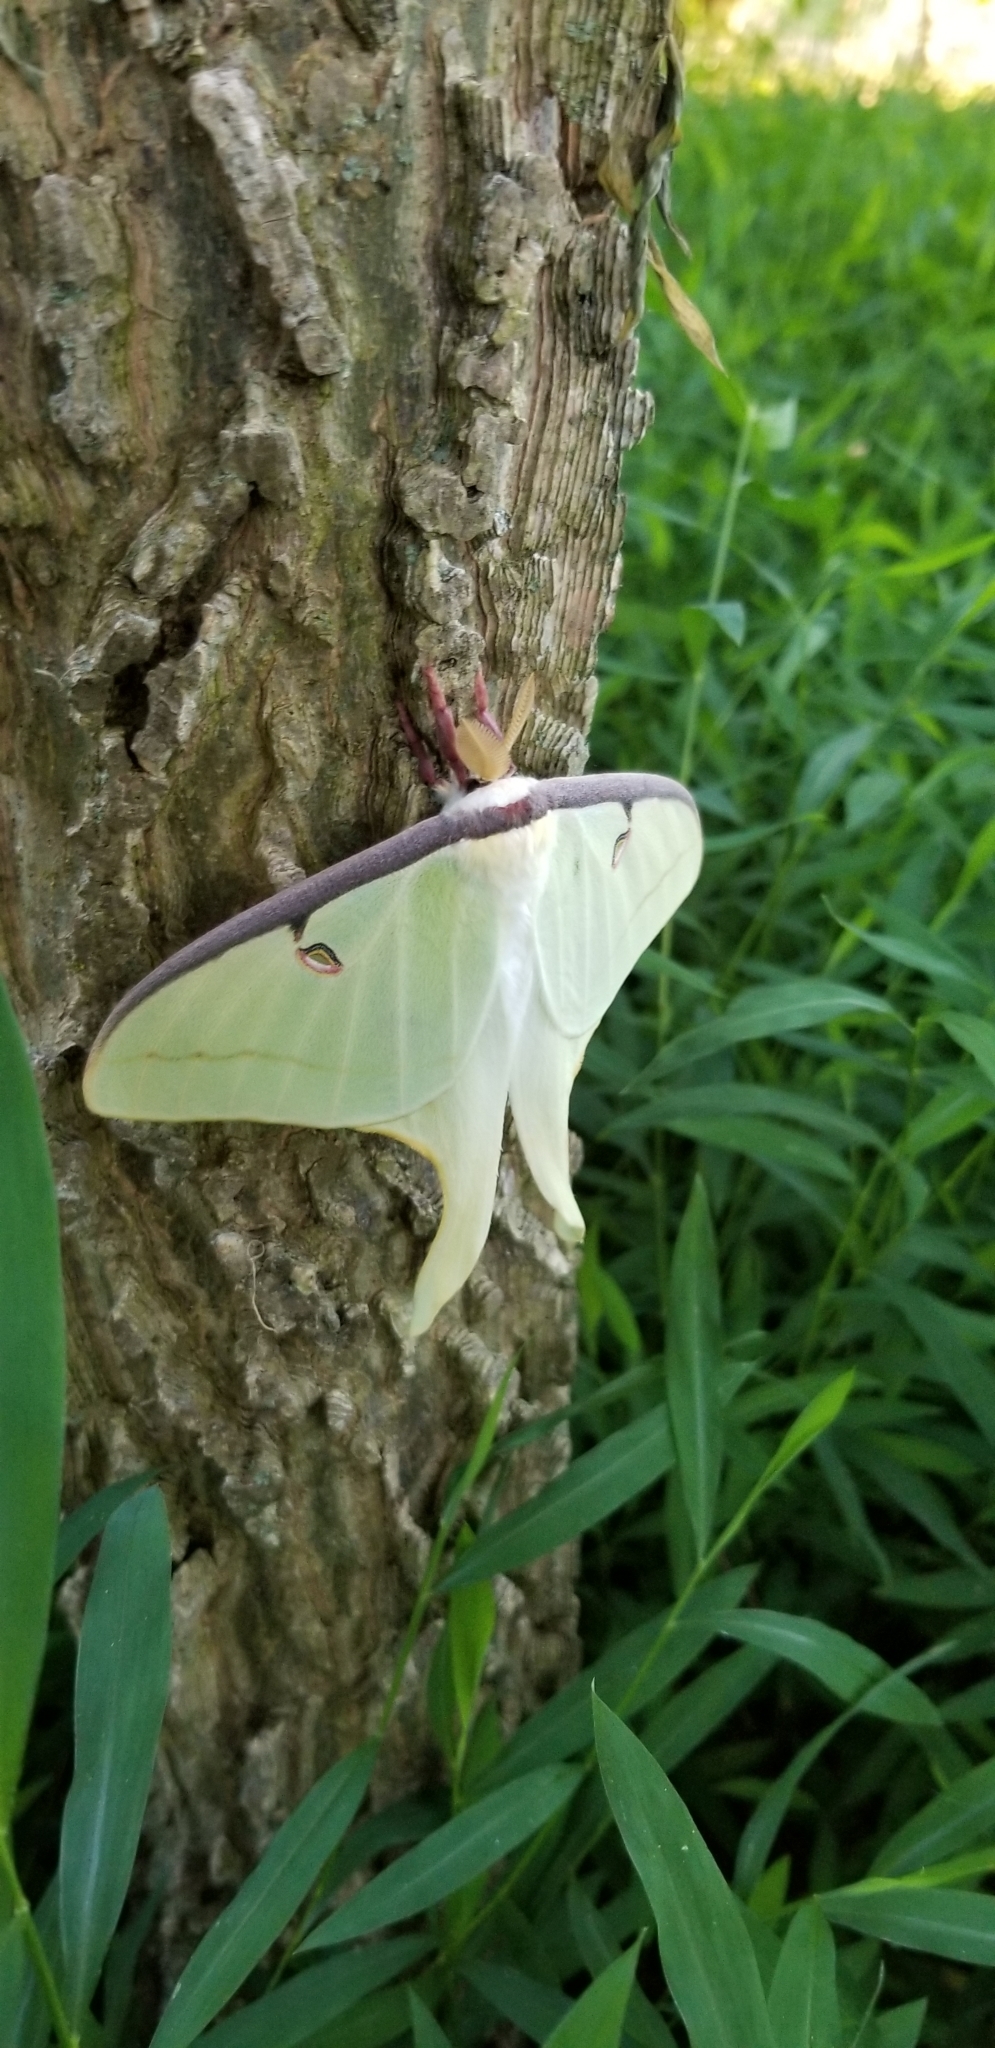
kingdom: Animalia
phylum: Arthropoda
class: Insecta
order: Lepidoptera
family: Saturniidae
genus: Actias
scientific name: Actias luna
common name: Luna moth
